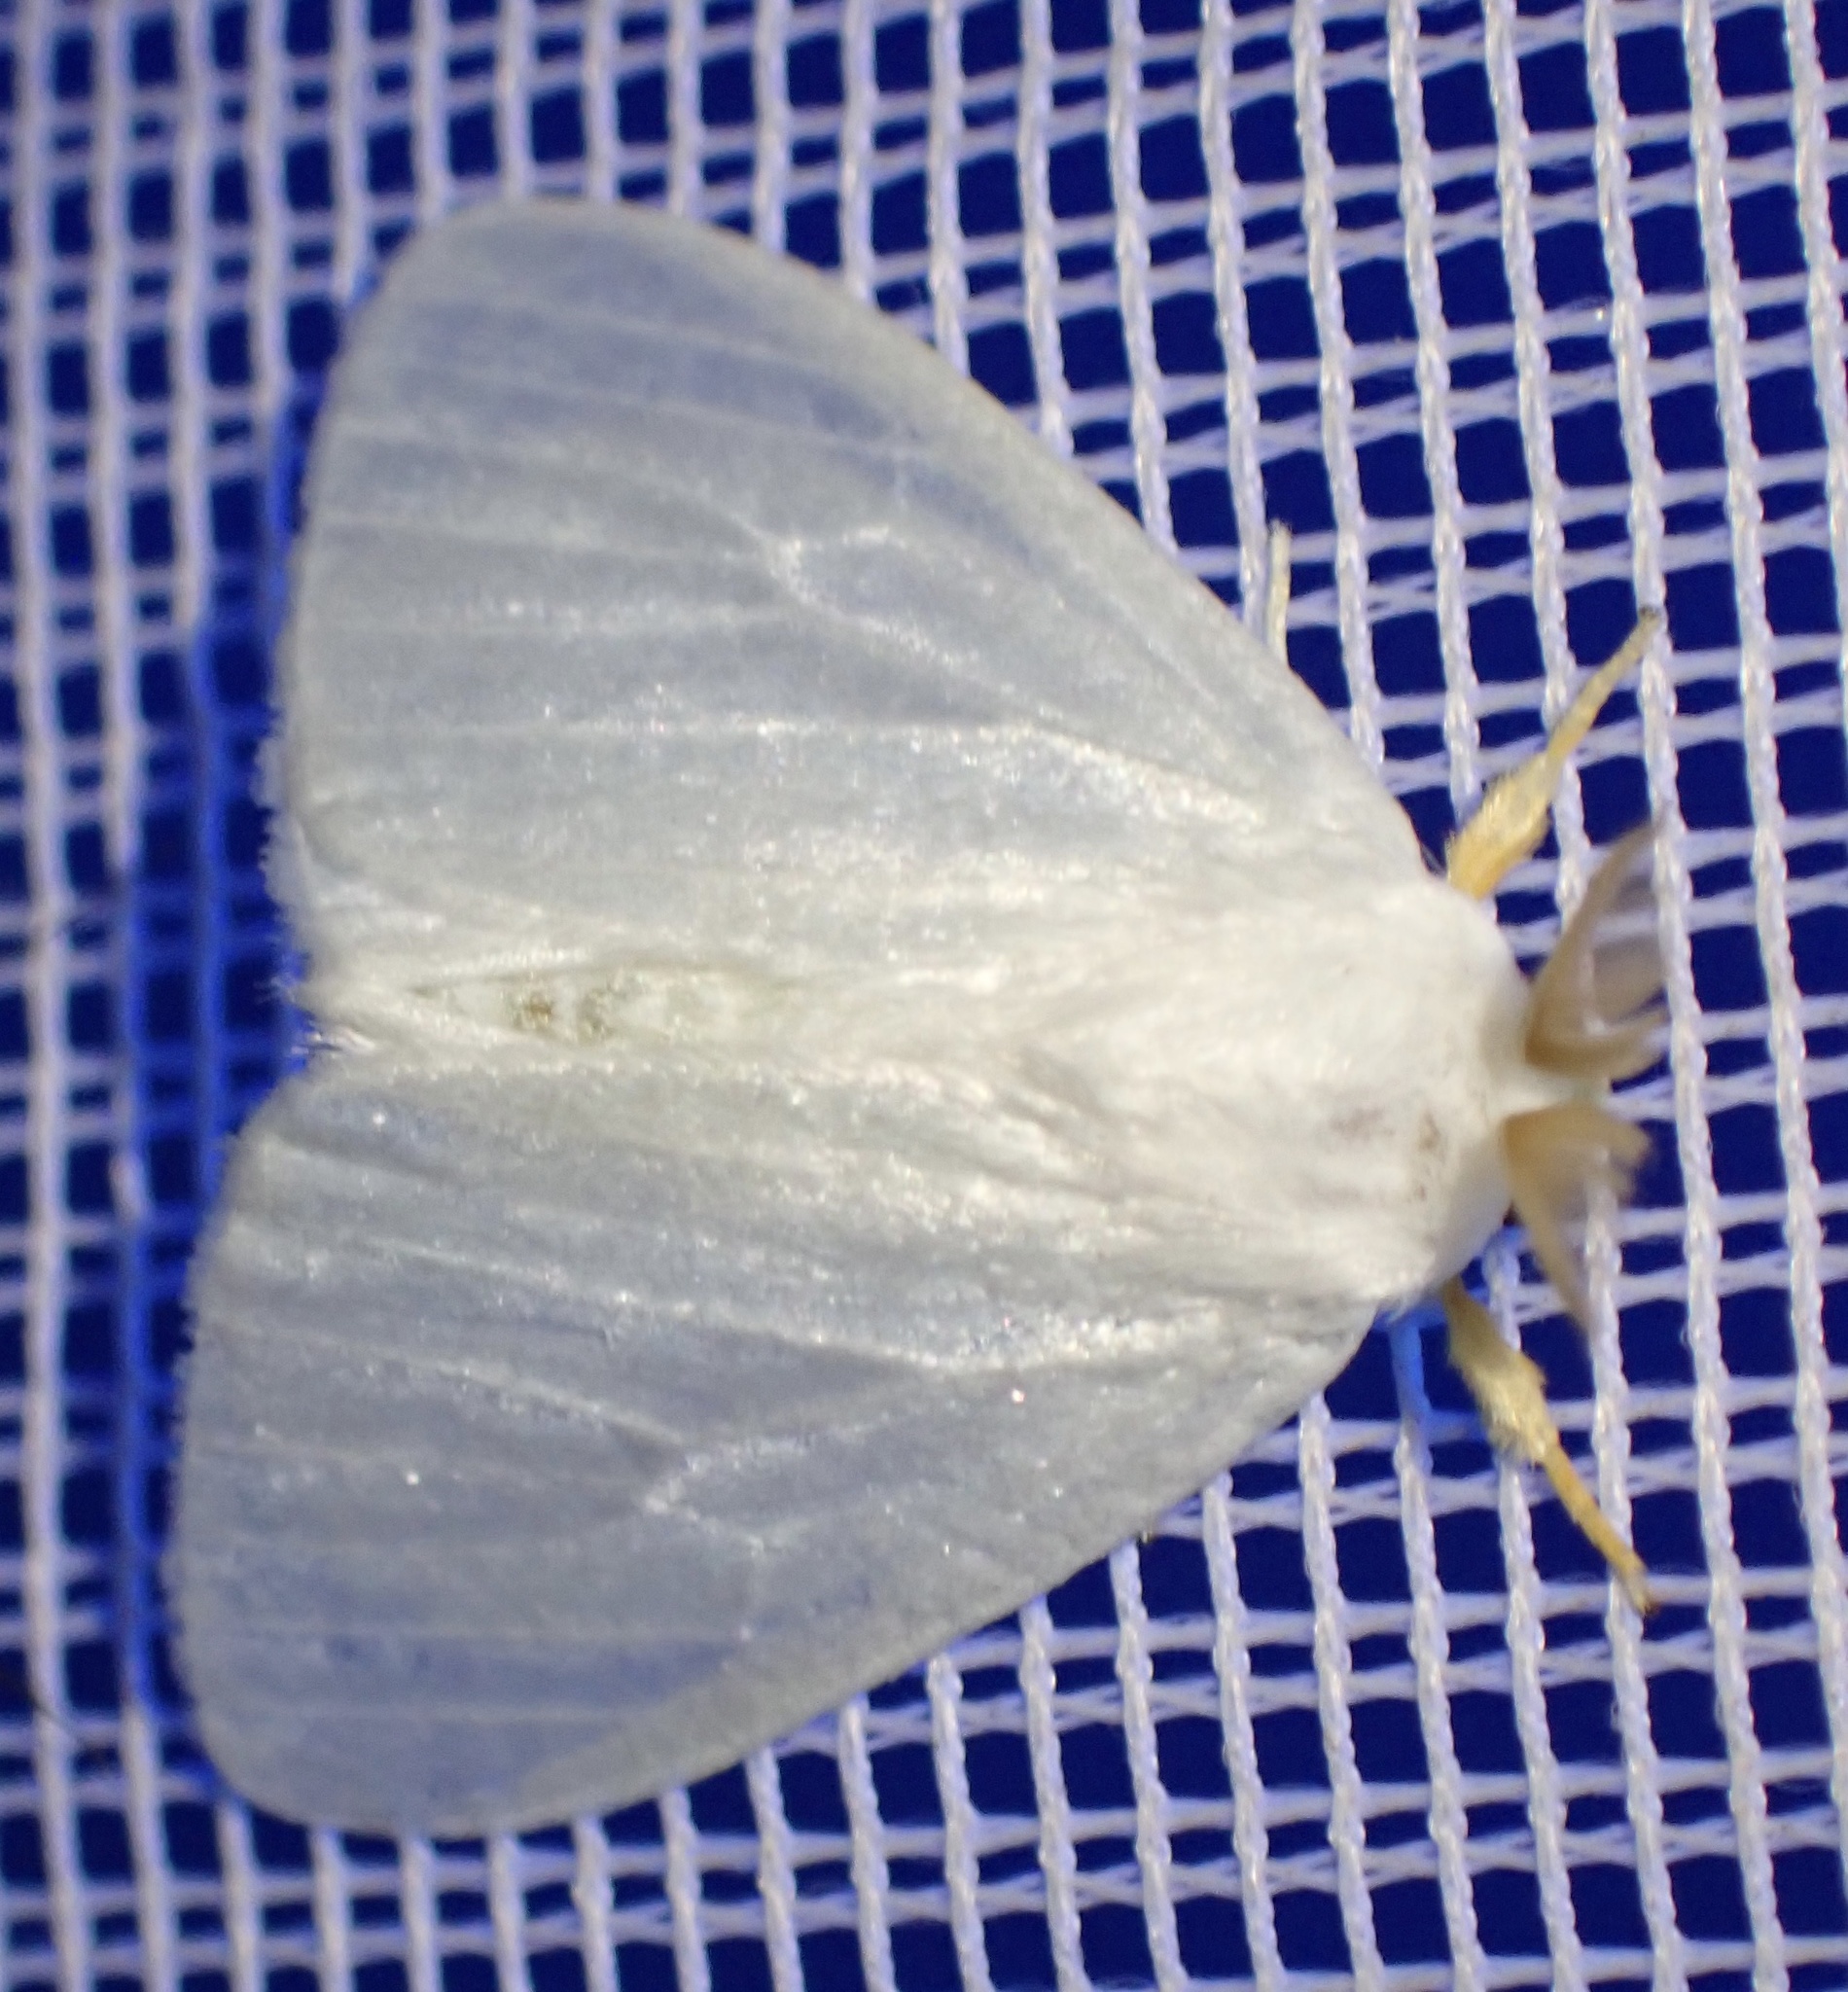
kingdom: Animalia
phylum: Arthropoda
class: Insecta
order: Lepidoptera
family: Erebidae
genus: Leucoma
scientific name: Leucoma luteipes
